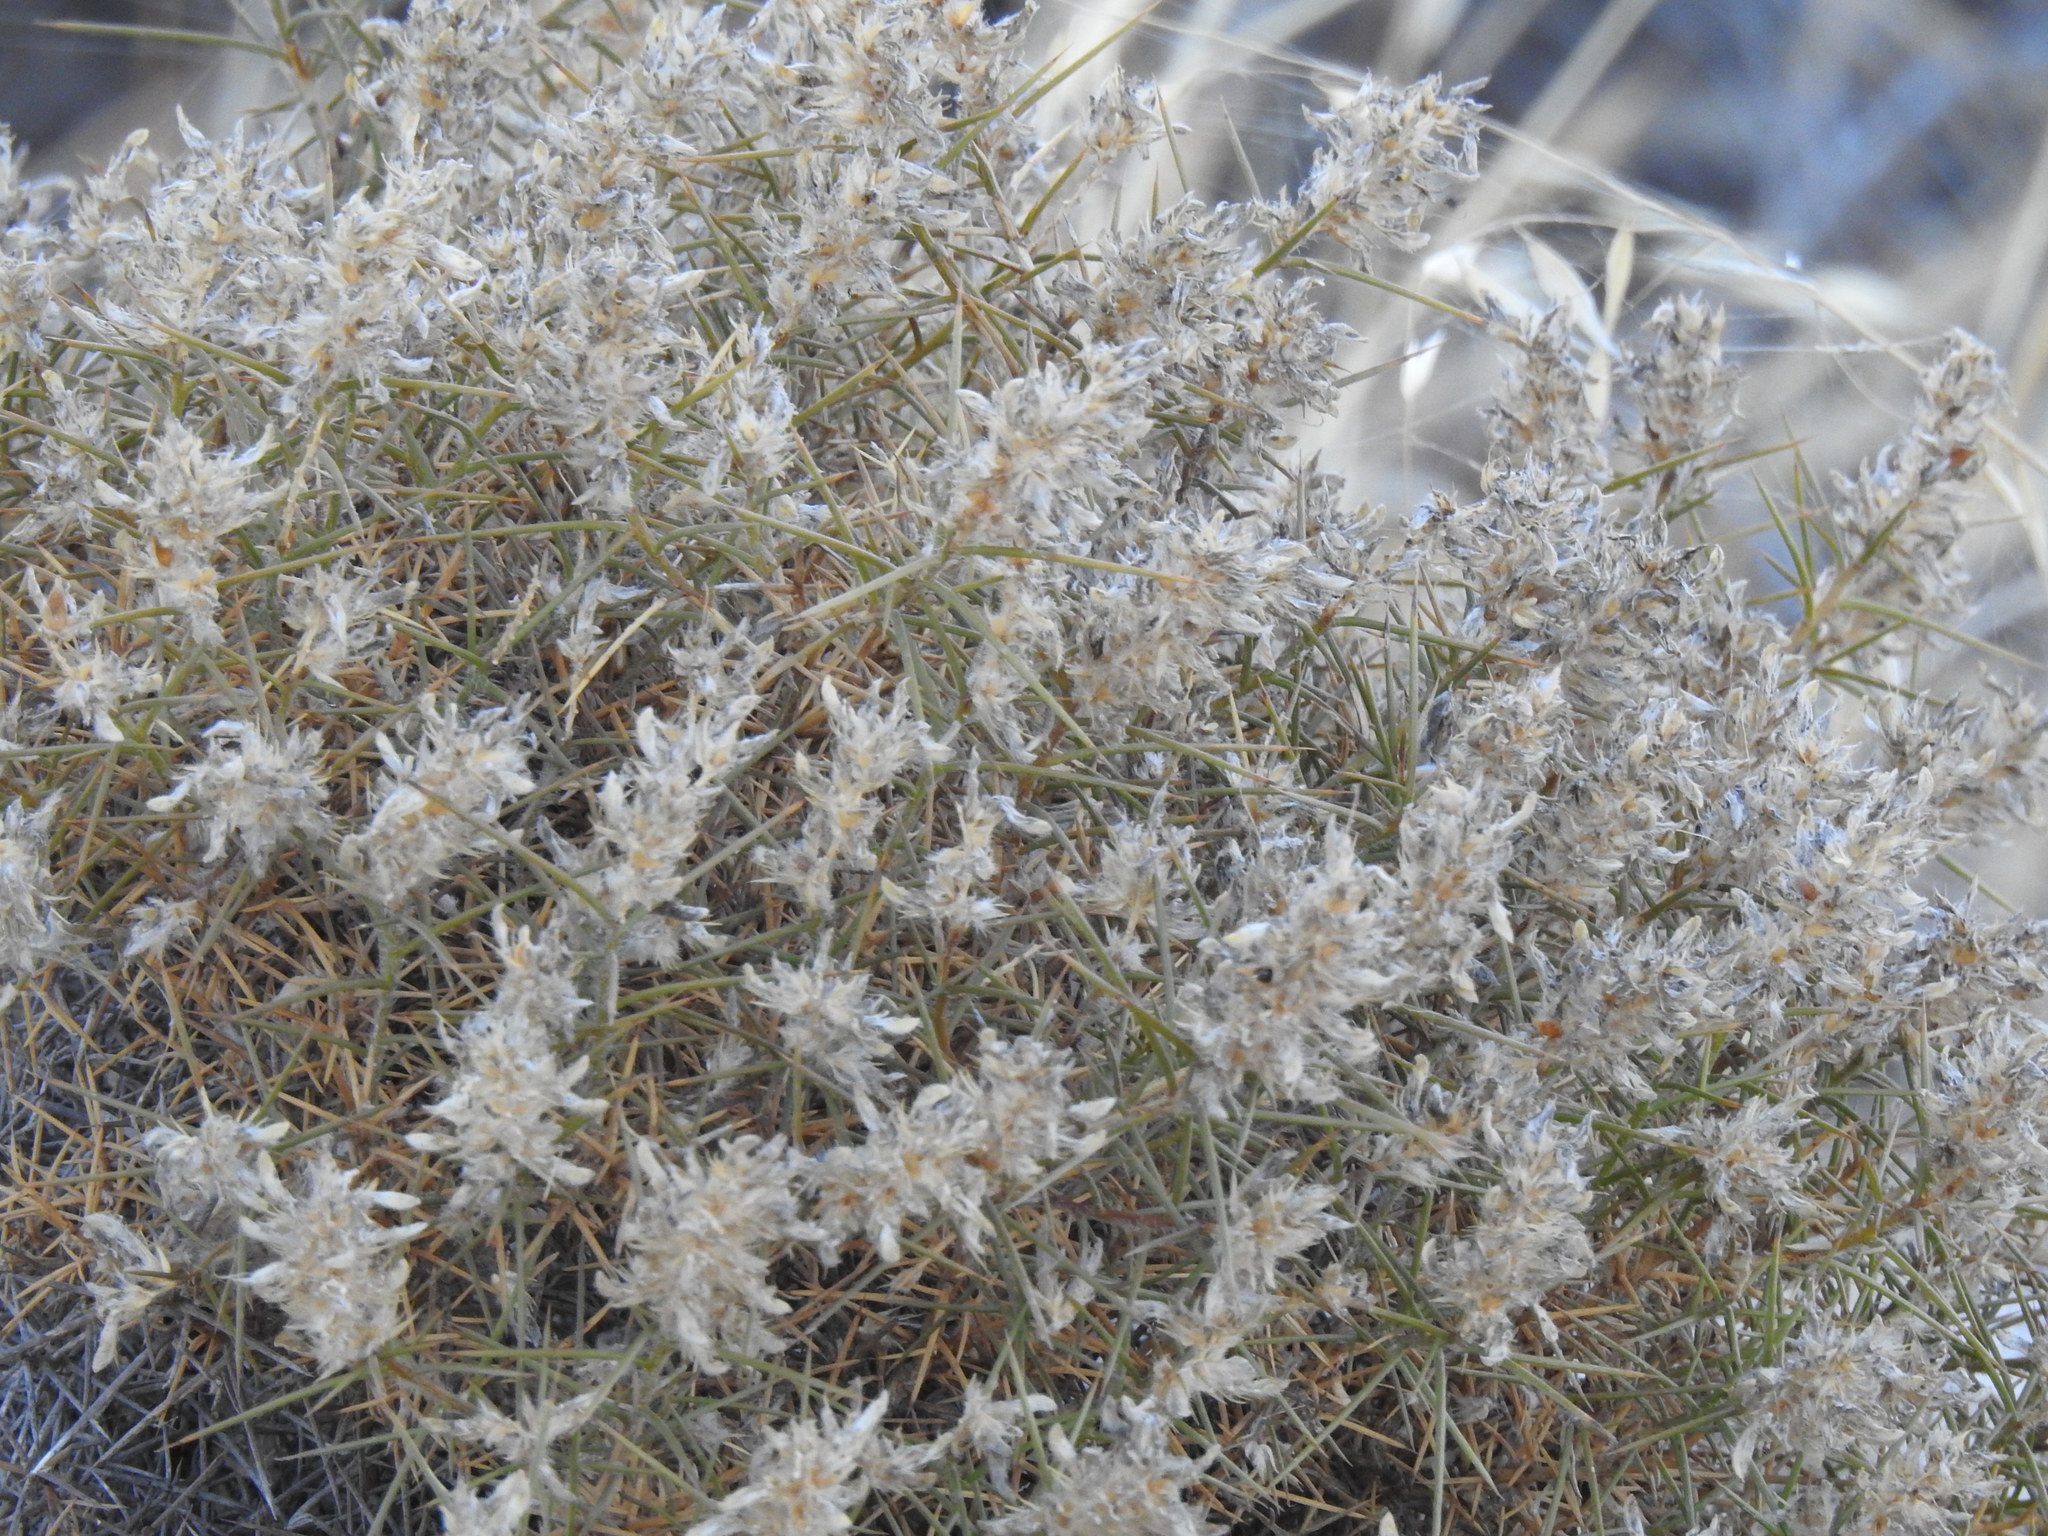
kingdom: Plantae
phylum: Tracheophyta
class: Magnoliopsida
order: Fabales
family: Fabaceae
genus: Genista
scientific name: Genista hirsuta
